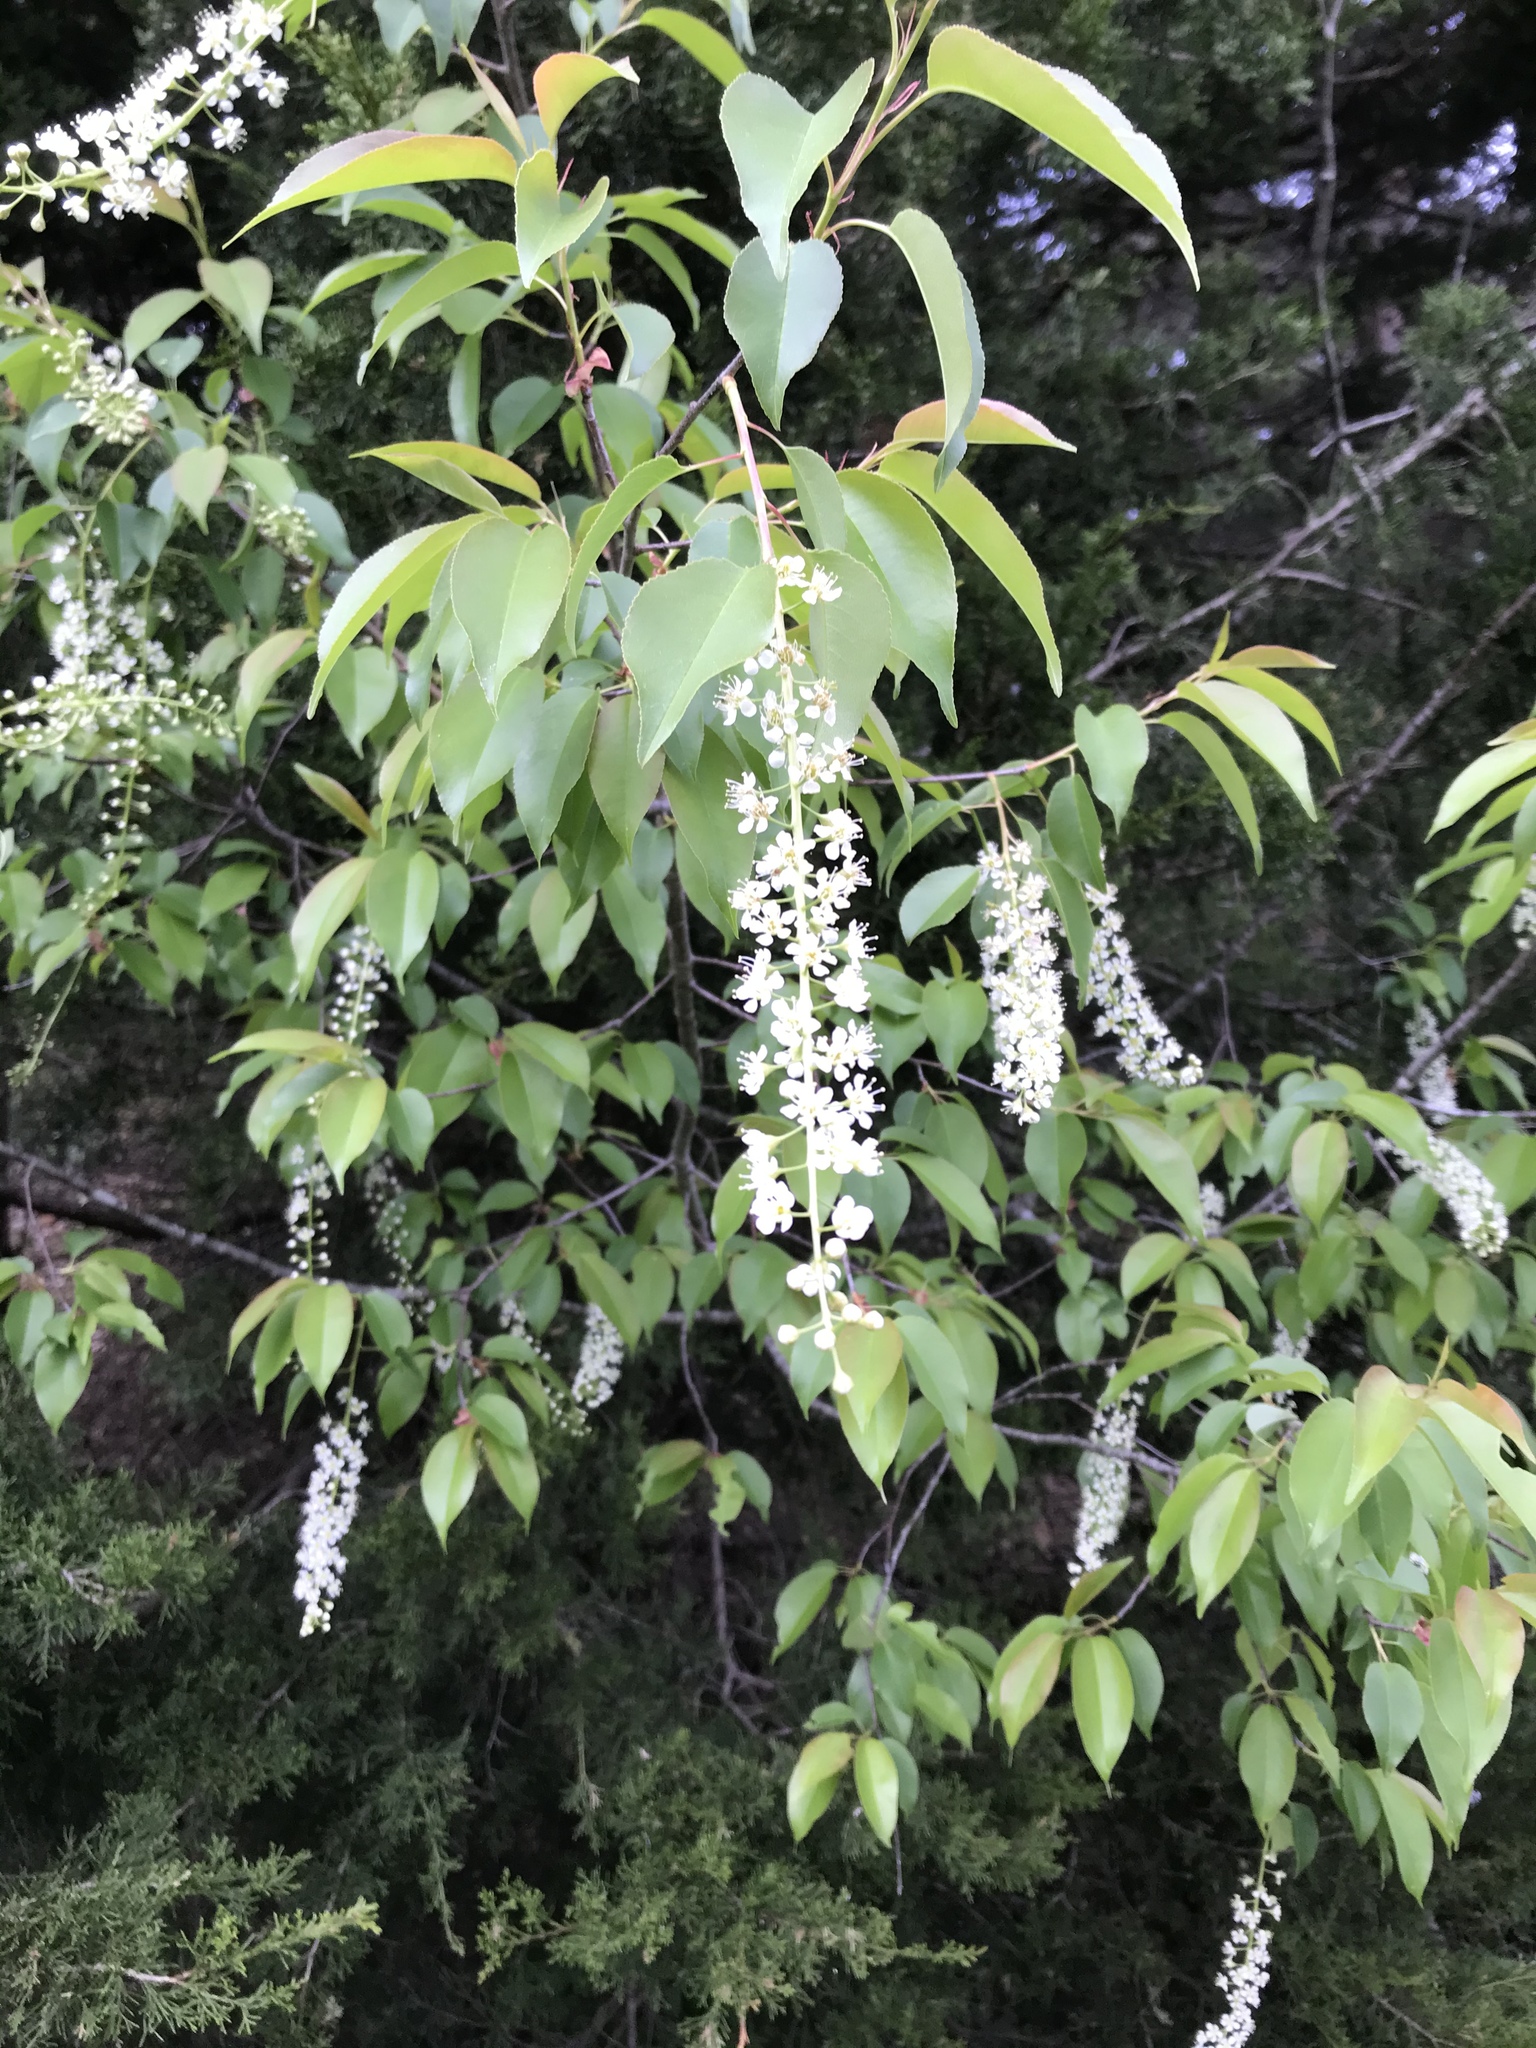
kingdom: Plantae
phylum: Tracheophyta
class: Magnoliopsida
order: Rosales
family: Rosaceae
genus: Prunus
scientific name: Prunus serotina
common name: Black cherry
